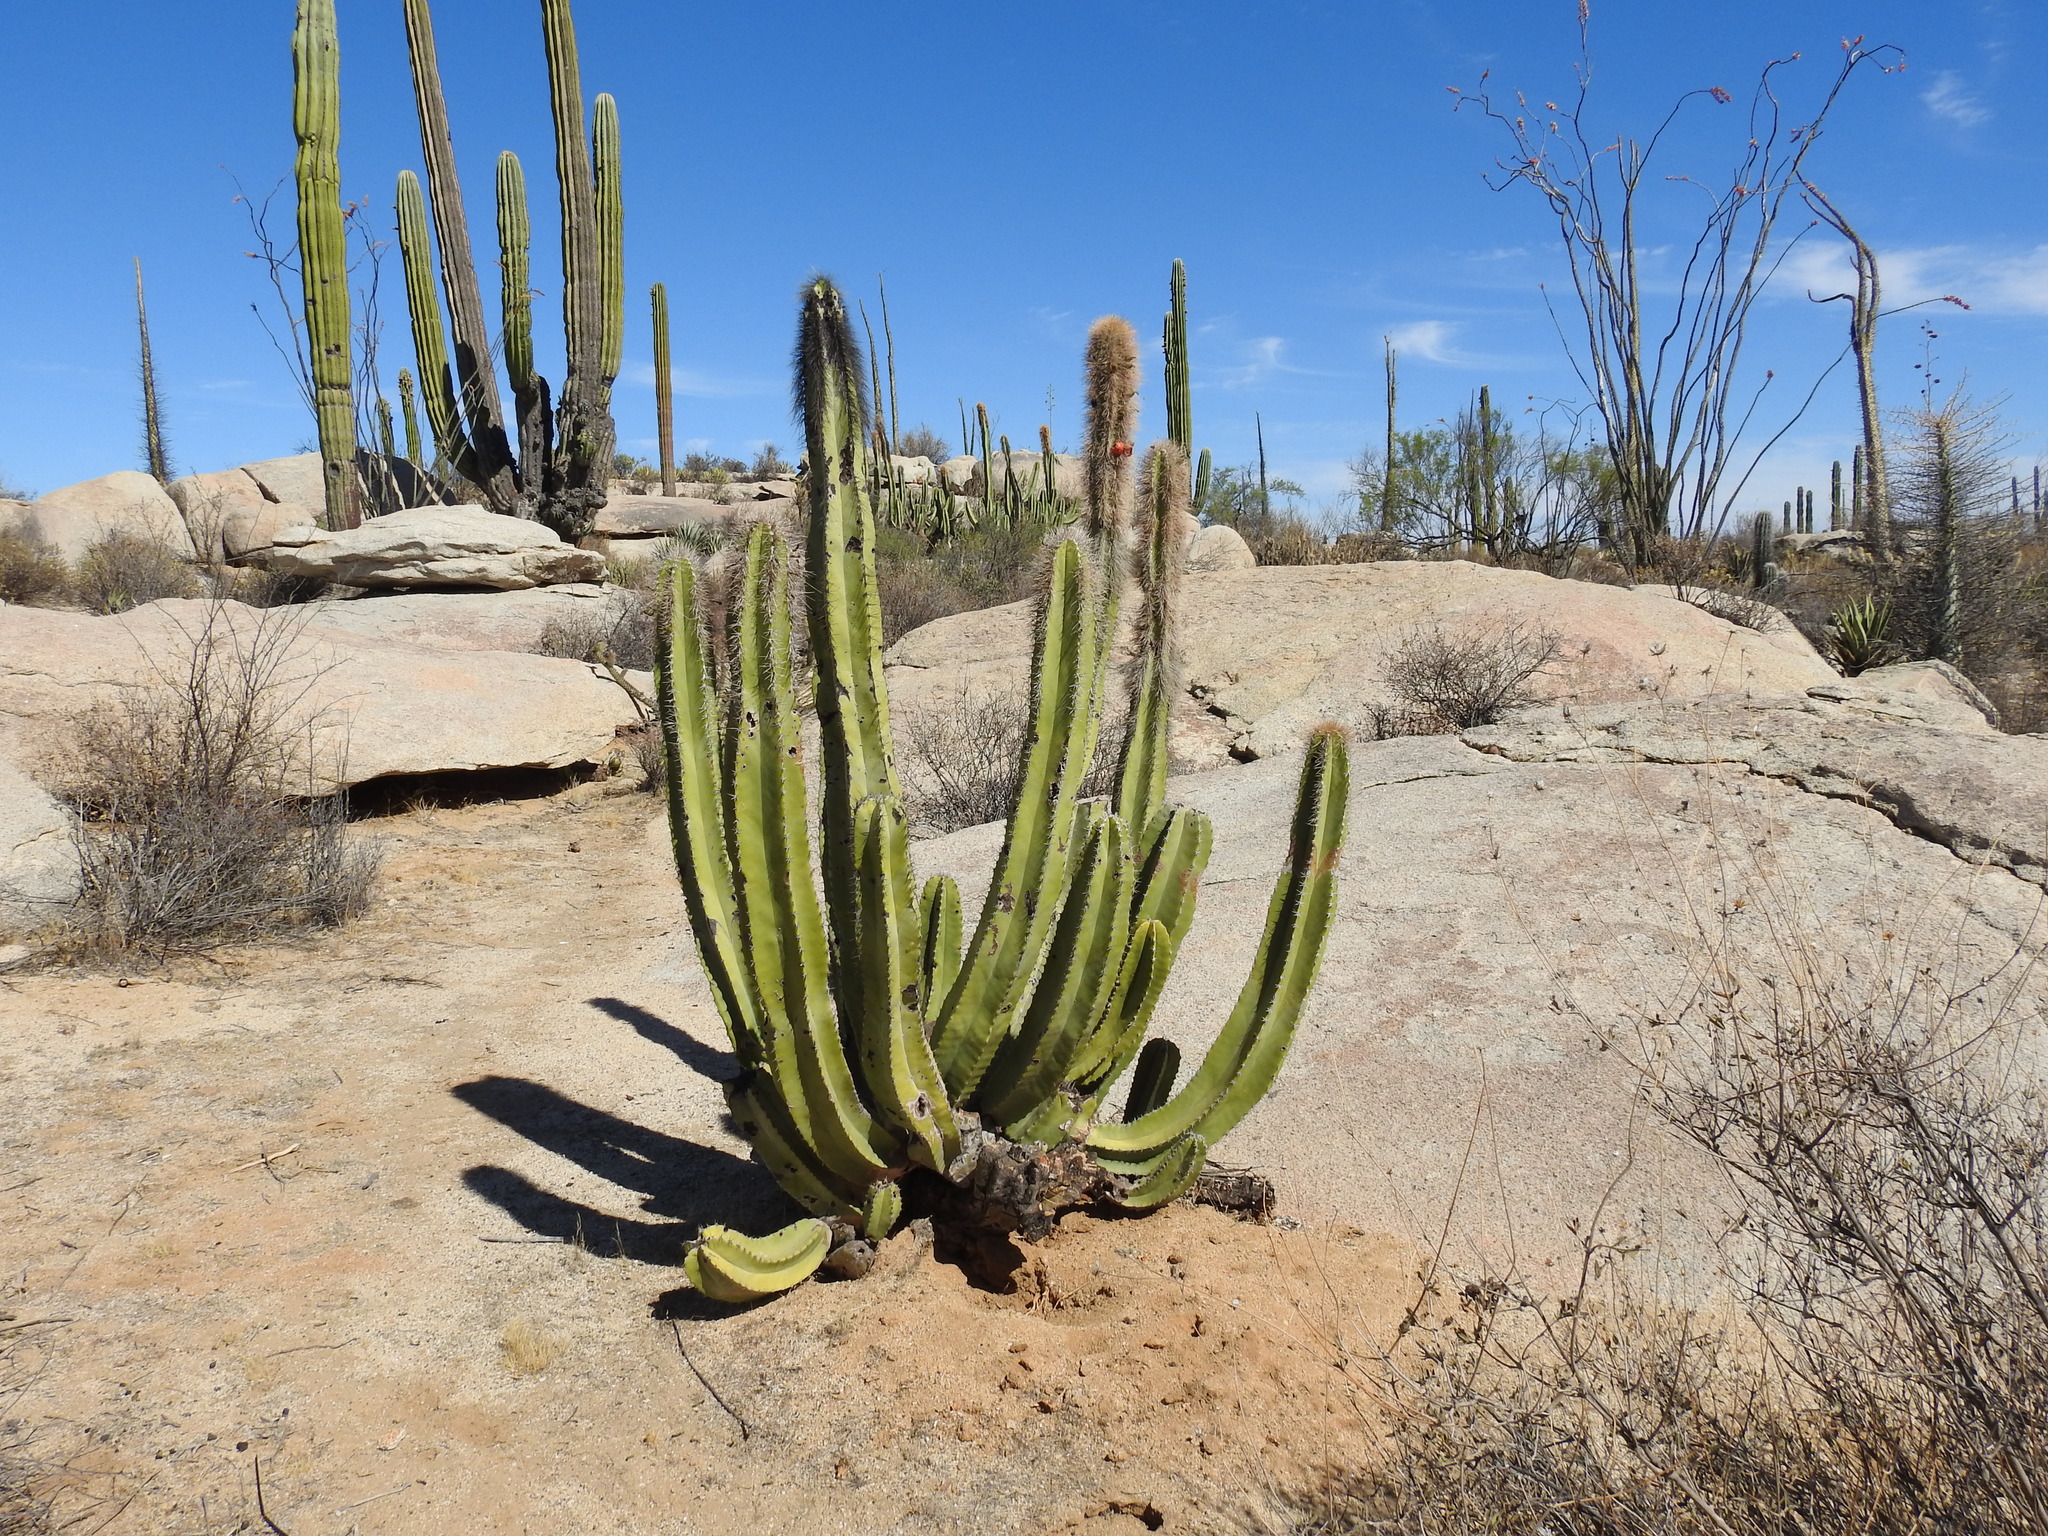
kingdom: Plantae
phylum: Tracheophyta
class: Magnoliopsida
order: Caryophyllales
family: Cactaceae
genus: Pachycereus
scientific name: Pachycereus schottii
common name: Senita cactus
